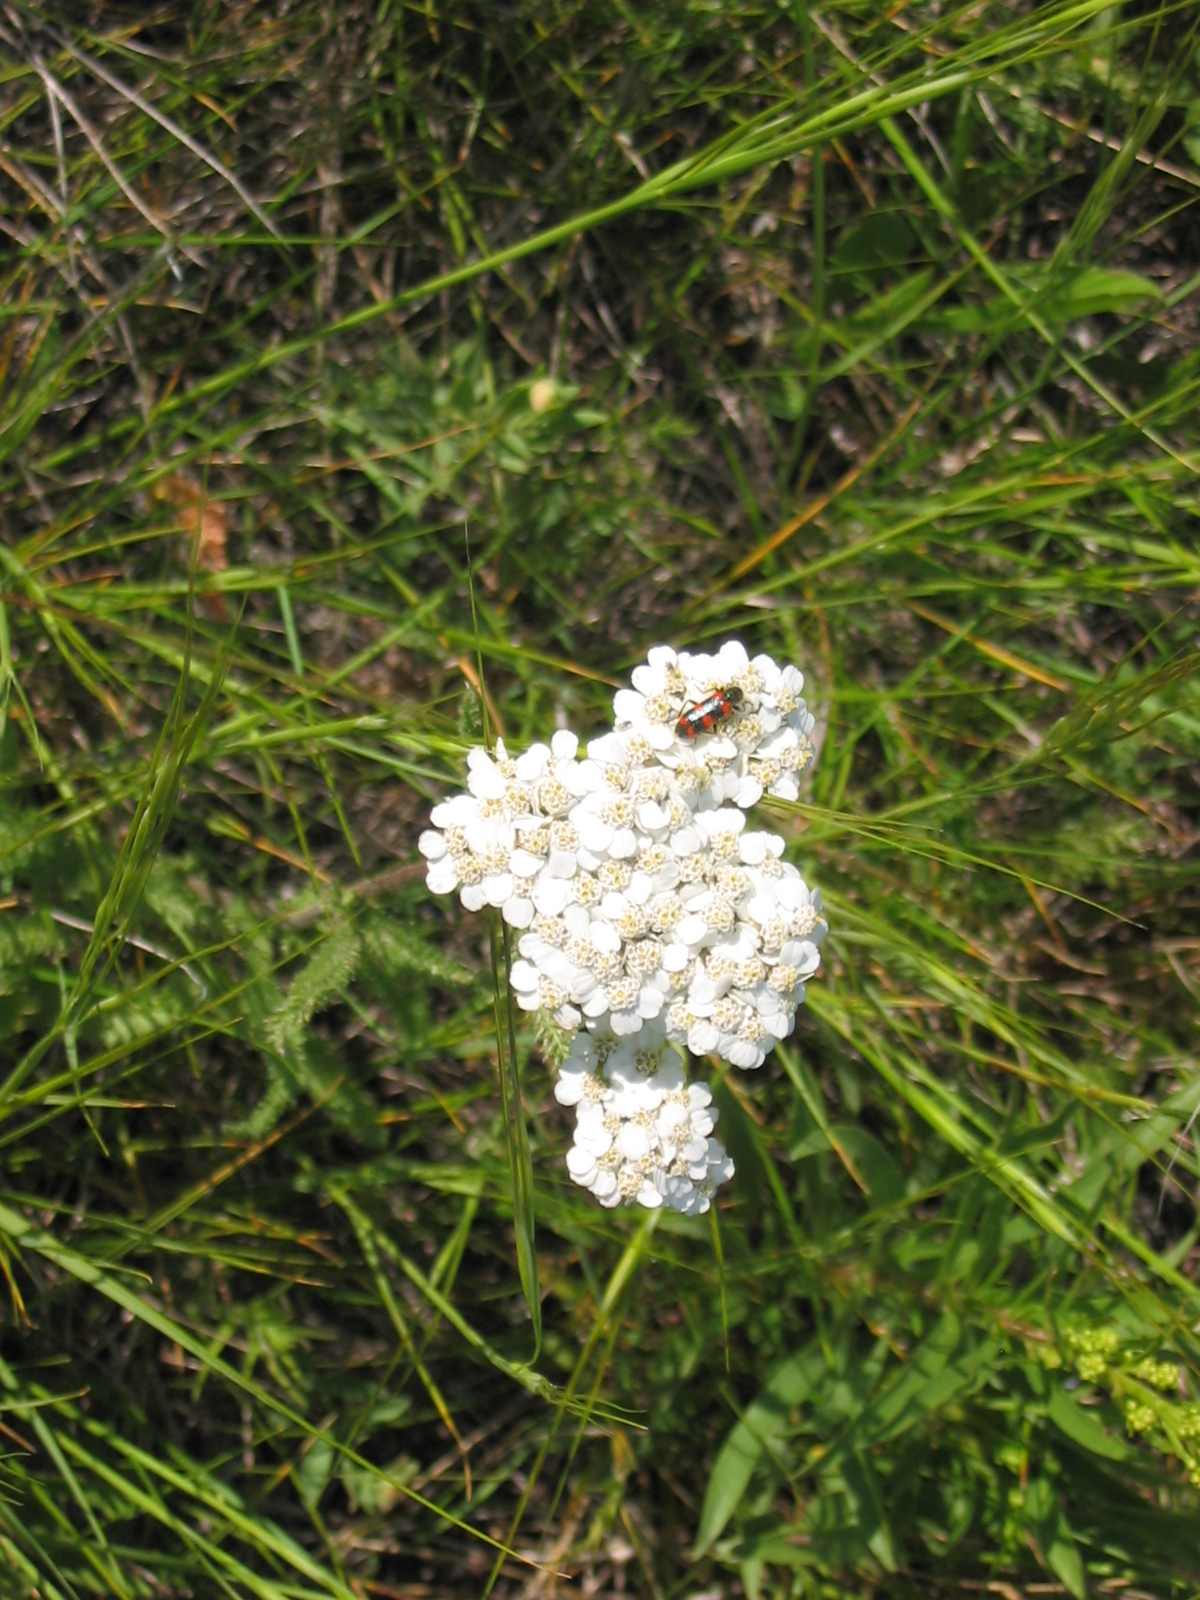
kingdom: Plantae
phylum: Tracheophyta
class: Magnoliopsida
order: Asterales
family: Asteraceae
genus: Achillea
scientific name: Achillea millefolium
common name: Yarrow
